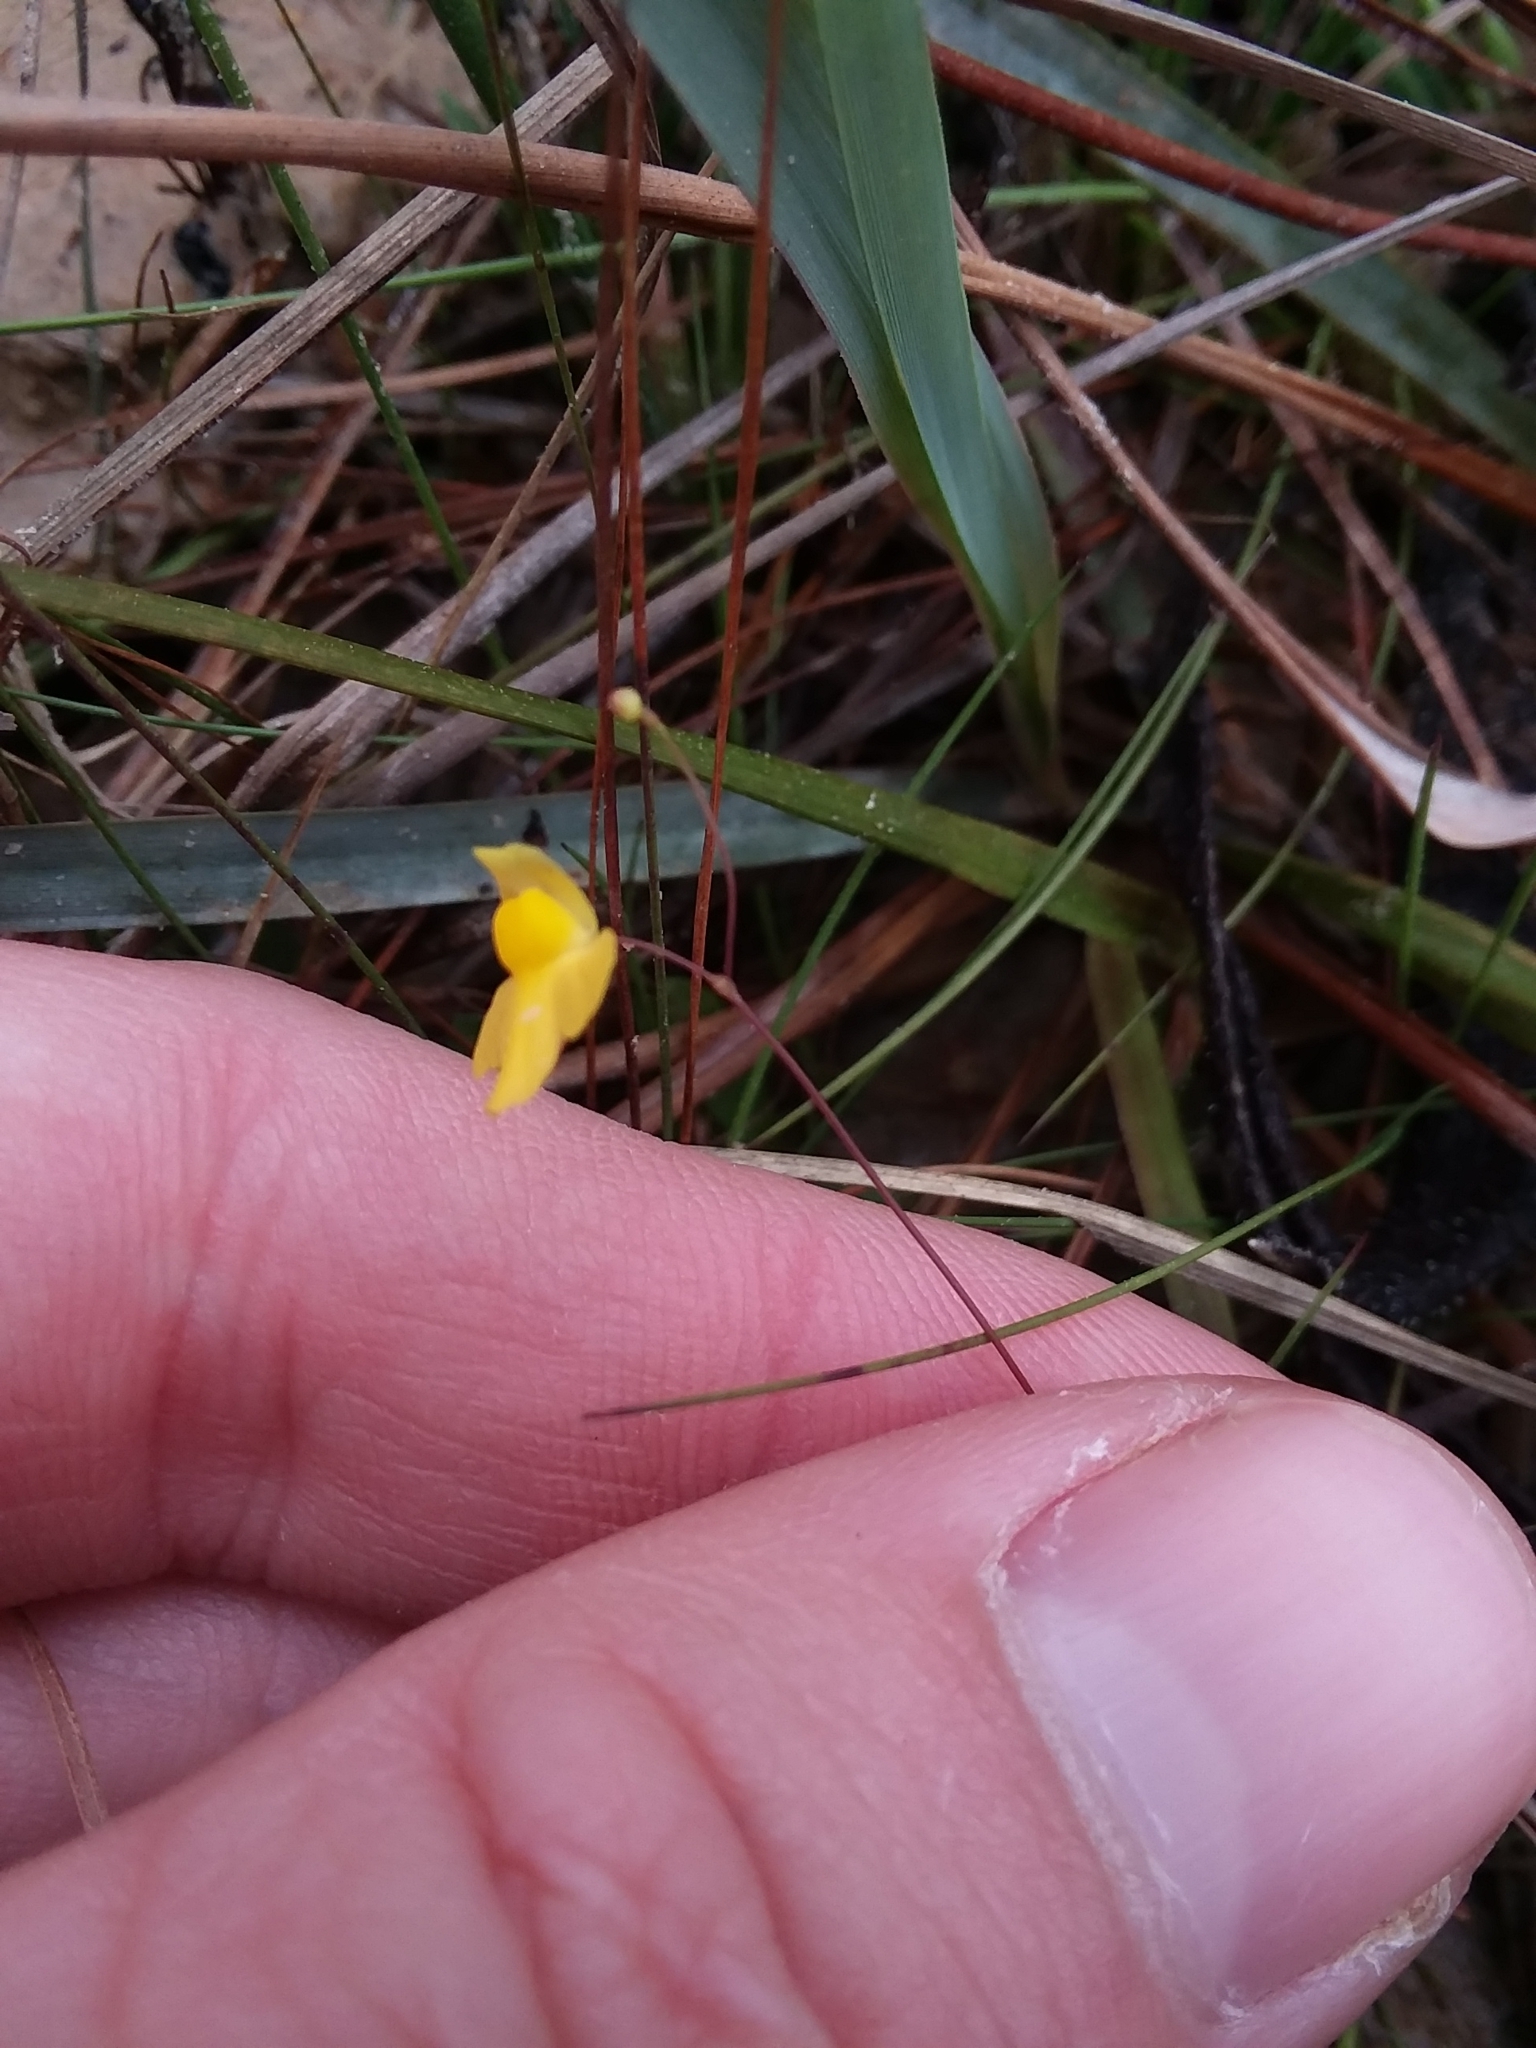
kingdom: Plantae
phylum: Tracheophyta
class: Magnoliopsida
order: Lamiales
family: Lentibulariaceae
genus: Utricularia
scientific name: Utricularia subulata
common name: Tiny bladderwort
